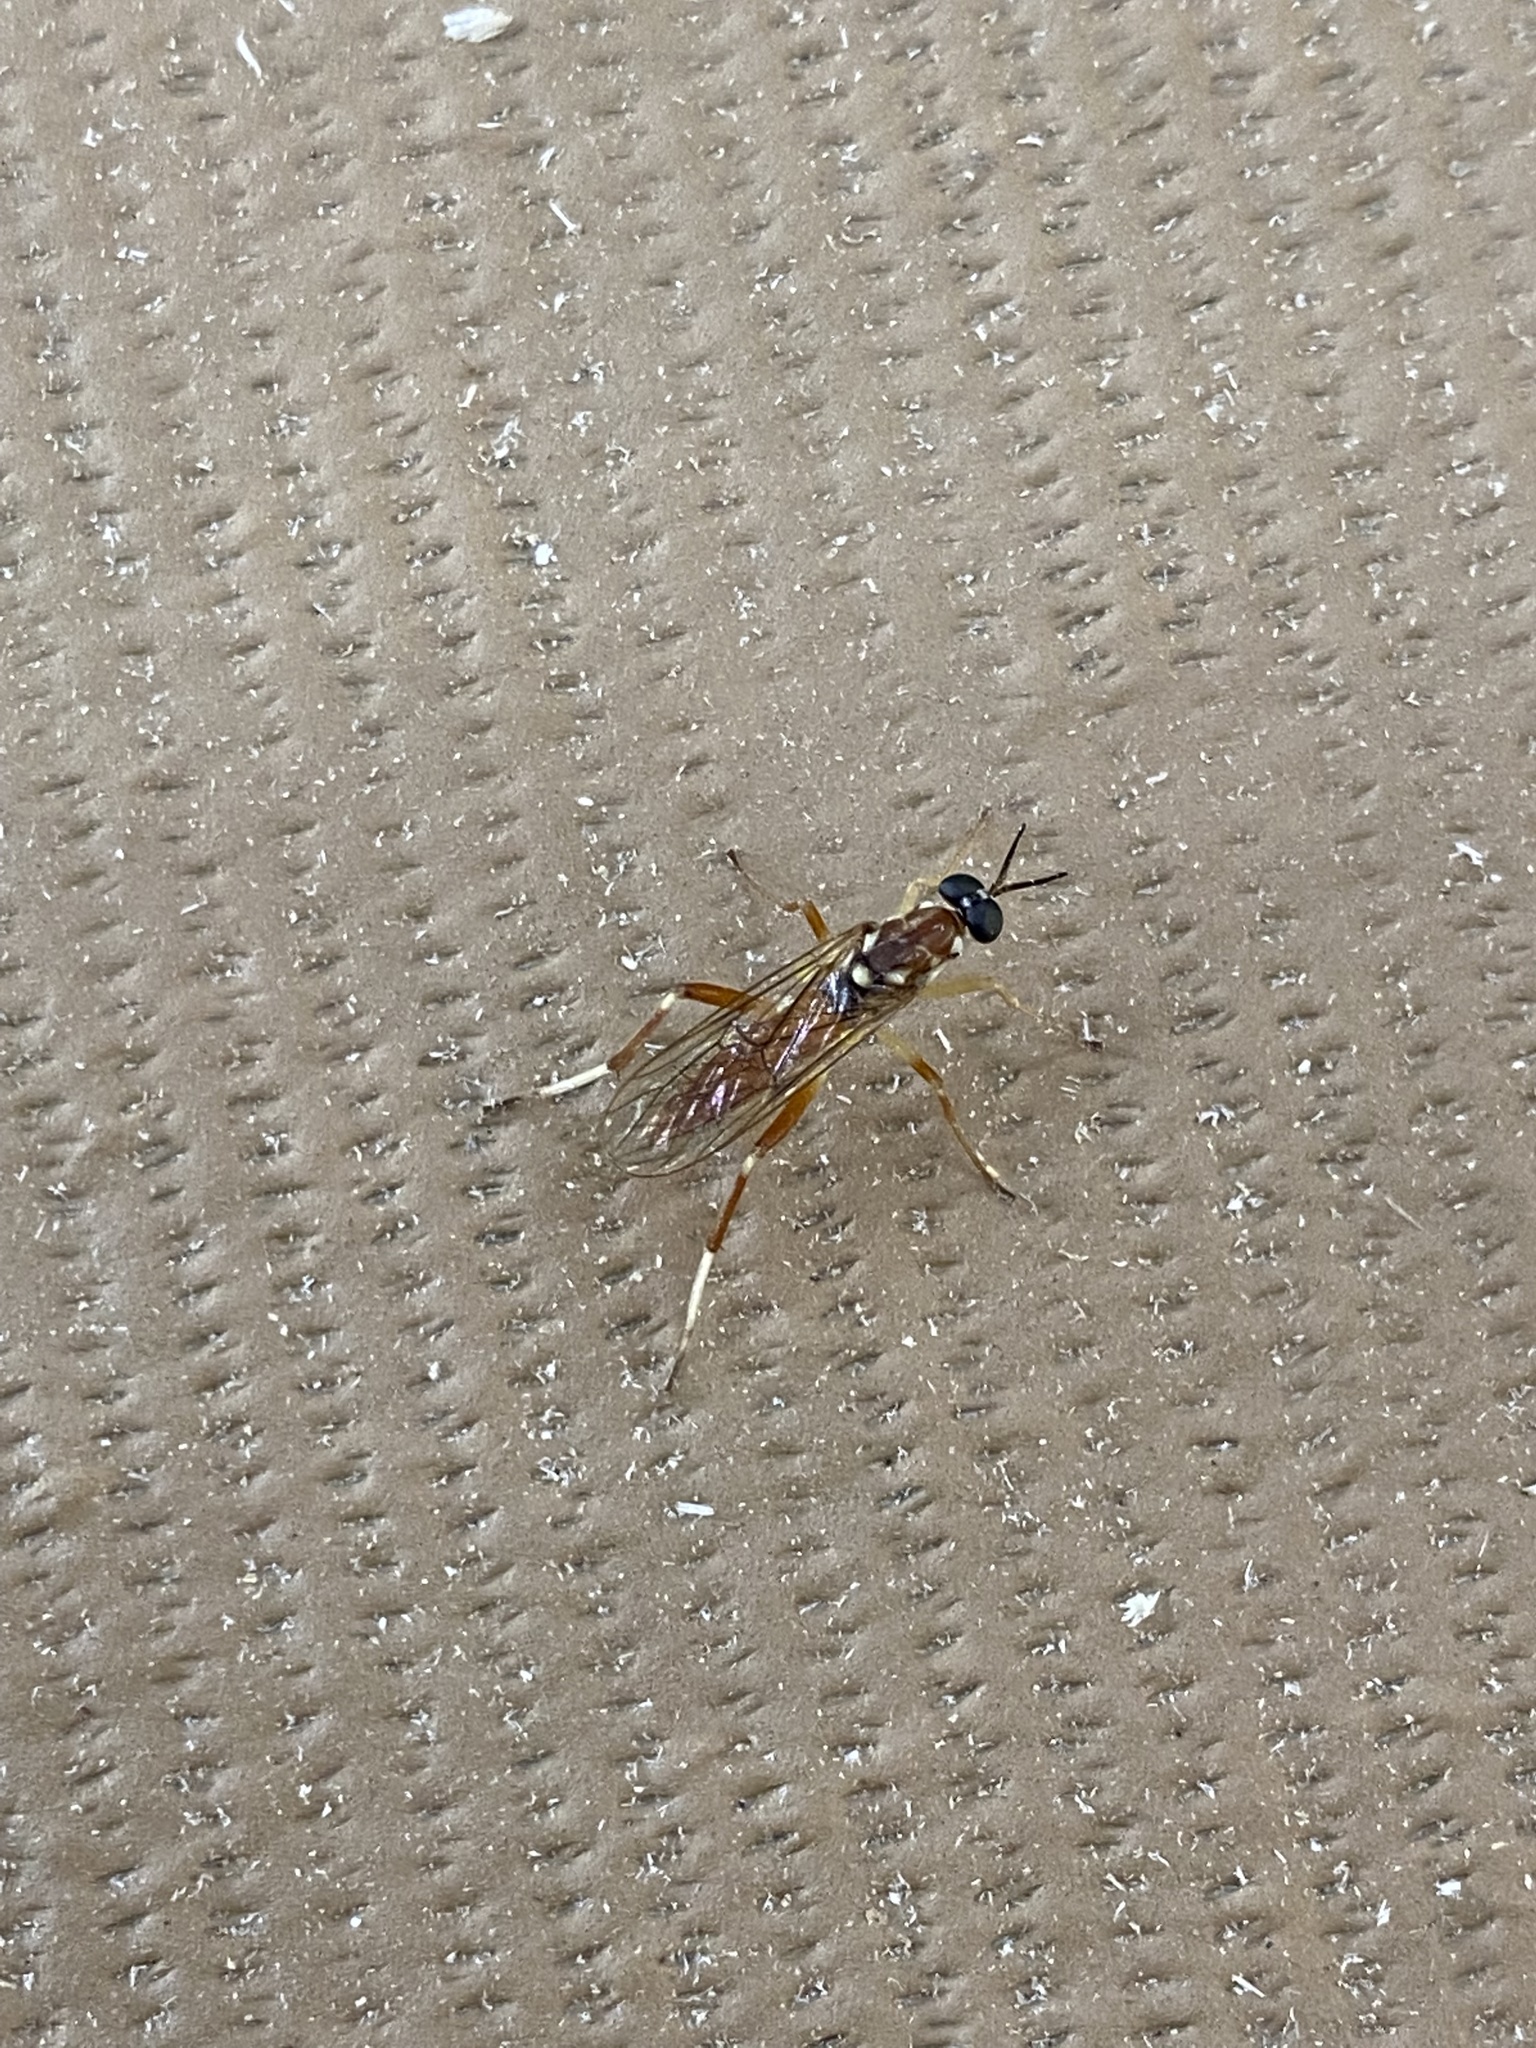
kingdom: Animalia
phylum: Arthropoda
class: Insecta
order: Diptera
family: Xylomyidae
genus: Xylomya
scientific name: Xylomya pallidifemur
